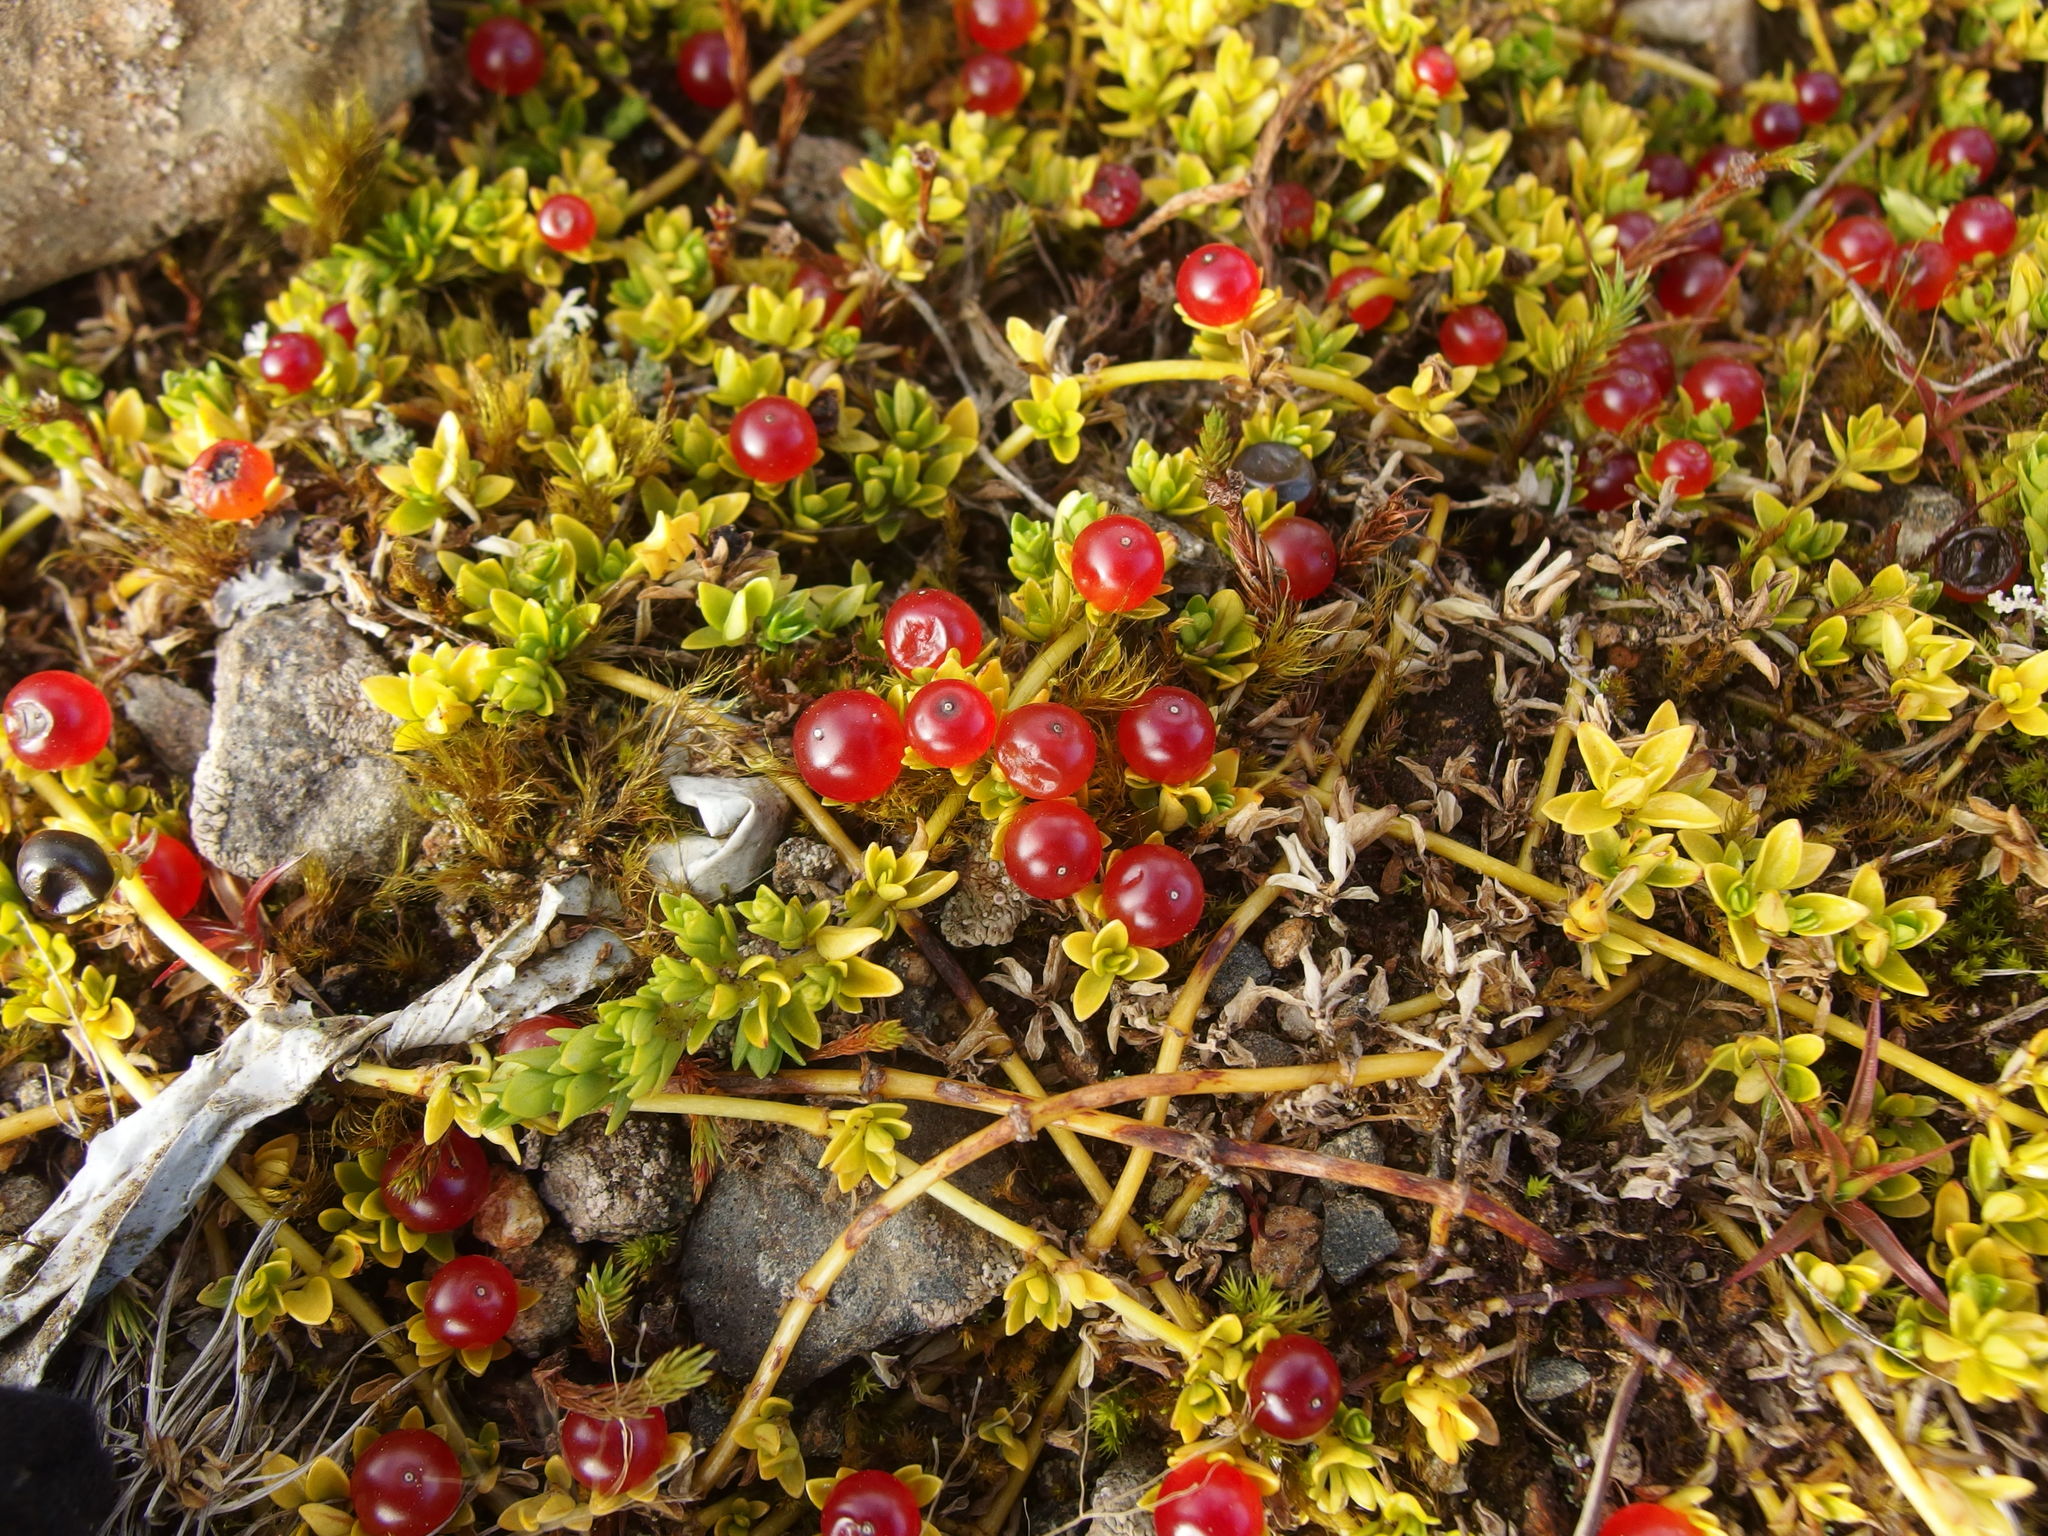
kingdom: Plantae
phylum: Tracheophyta
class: Magnoliopsida
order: Gentianales
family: Rubiaceae
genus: Nertera
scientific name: Nertera granadensis
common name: Beadplant
